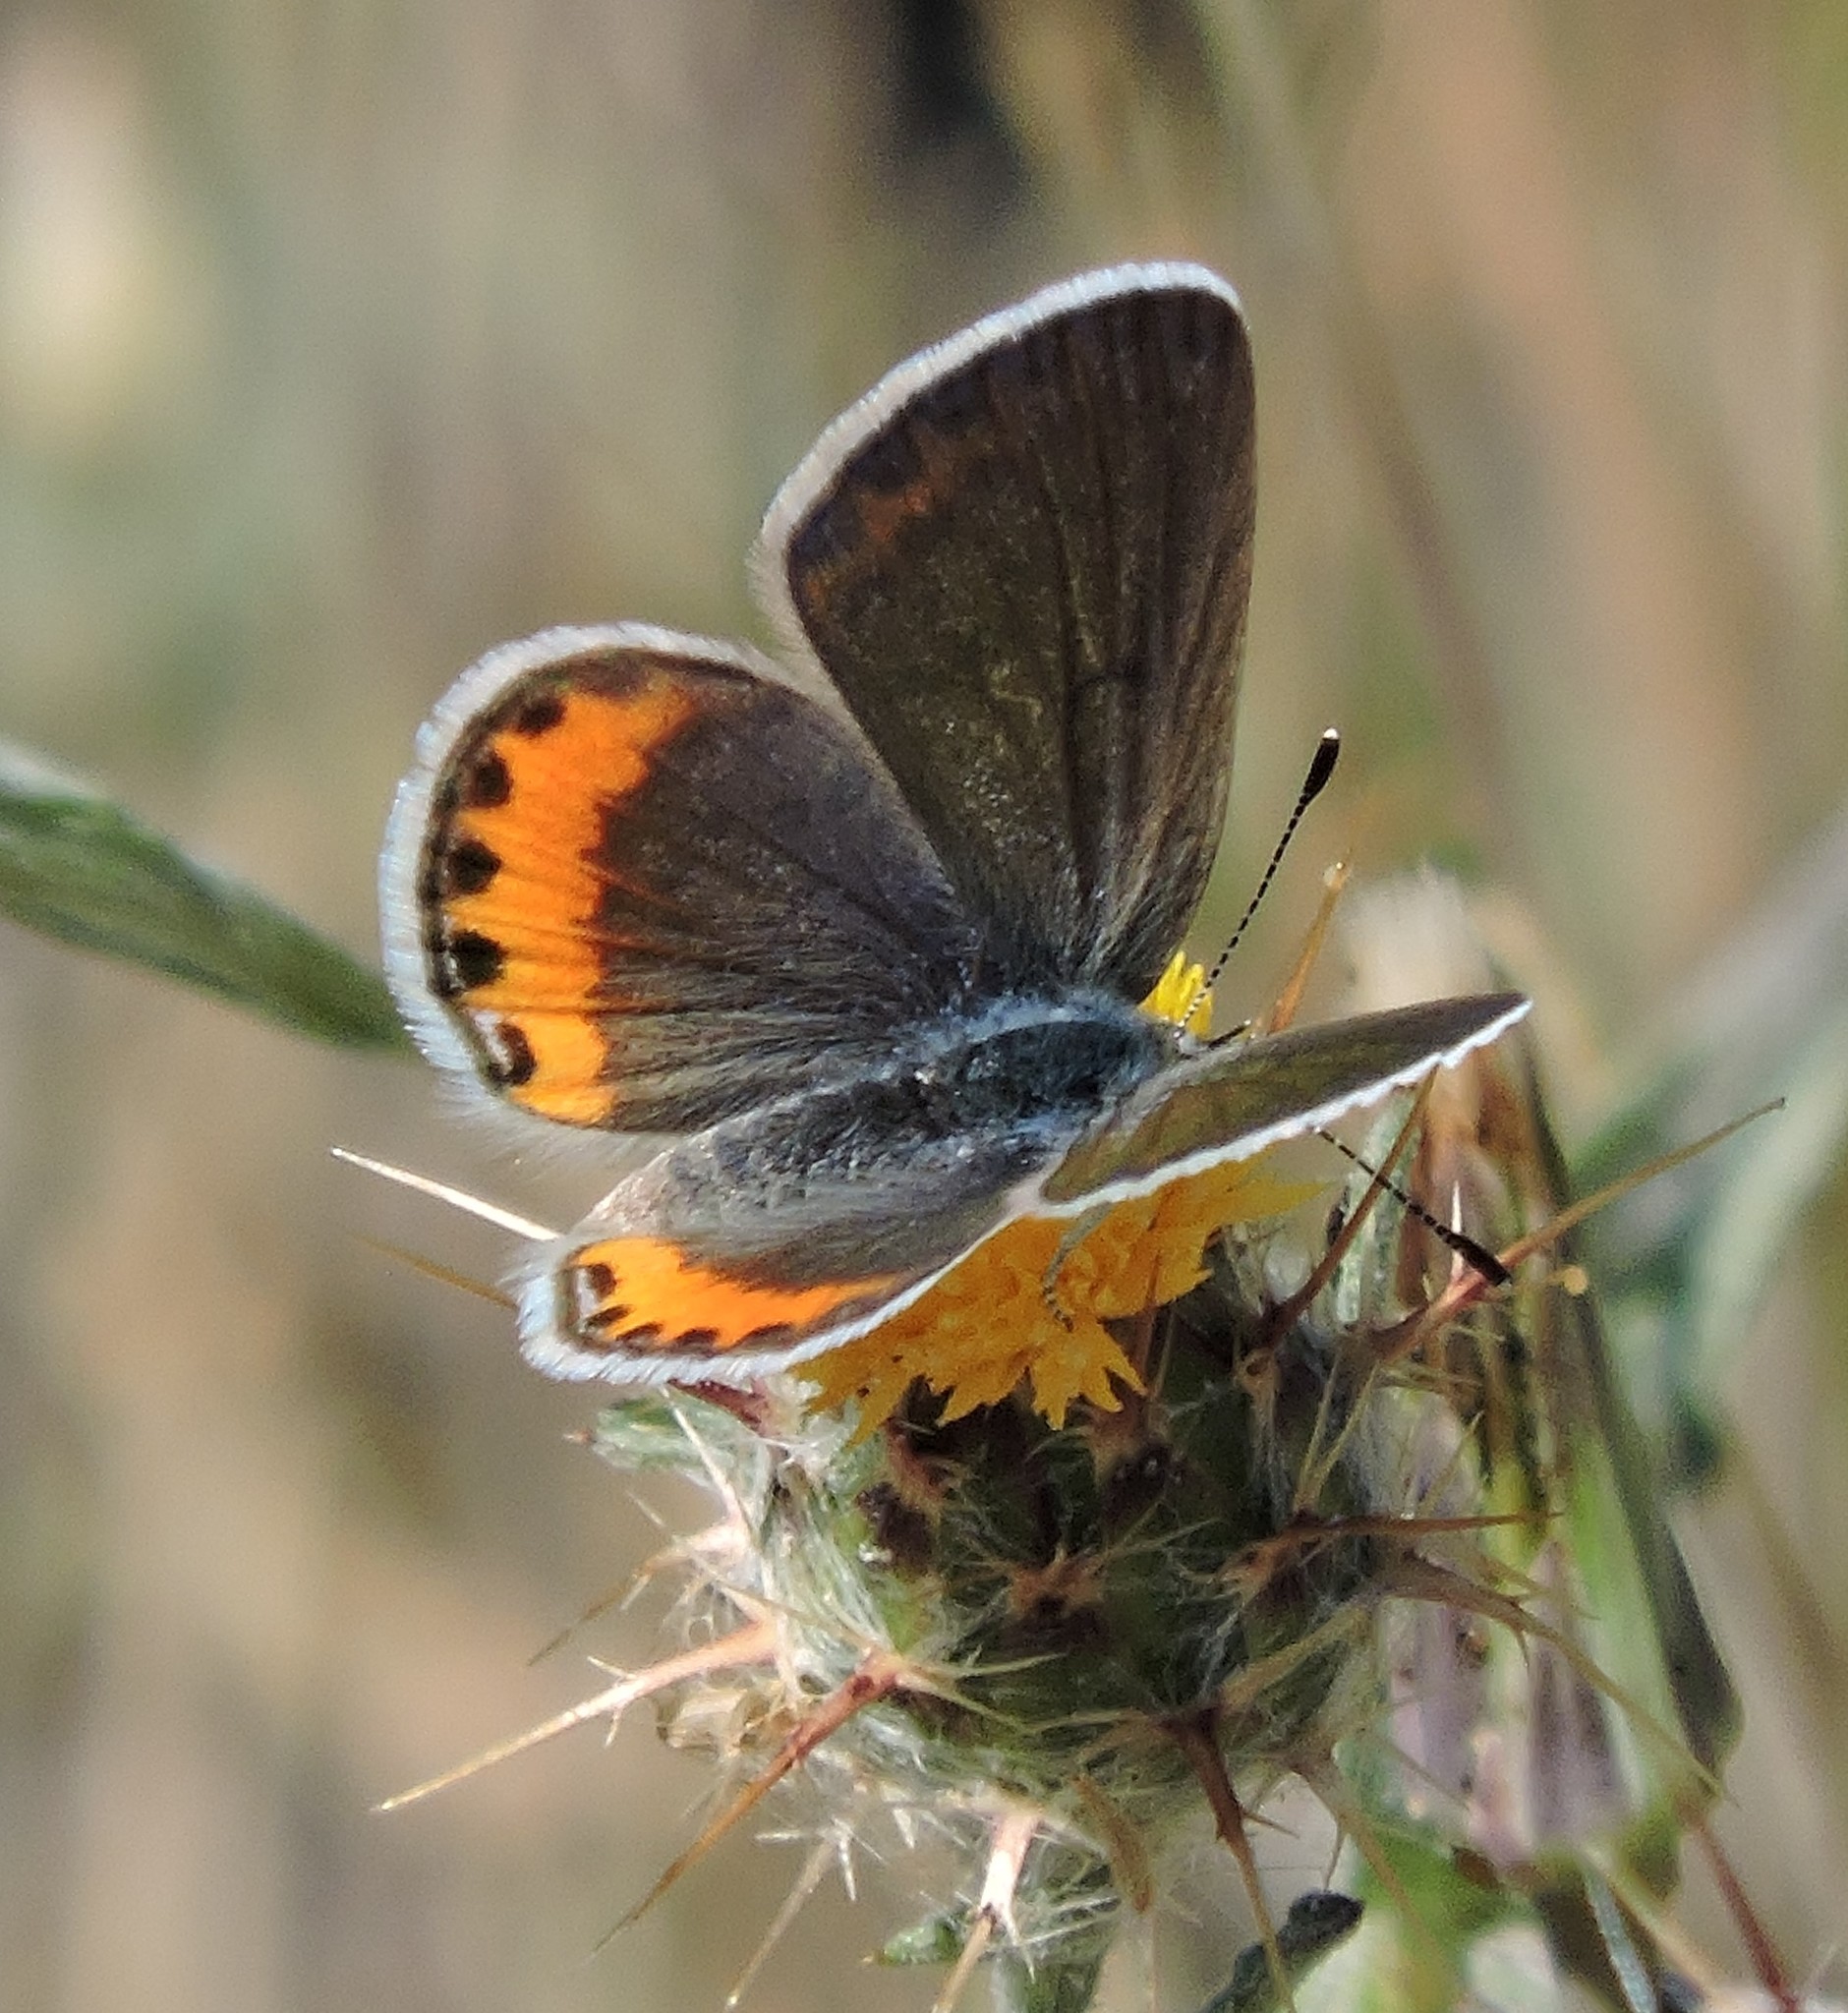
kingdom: Animalia
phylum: Arthropoda
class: Insecta
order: Lepidoptera
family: Lycaenidae
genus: Icaricia
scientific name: Icaricia acmon
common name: Acmon blue
